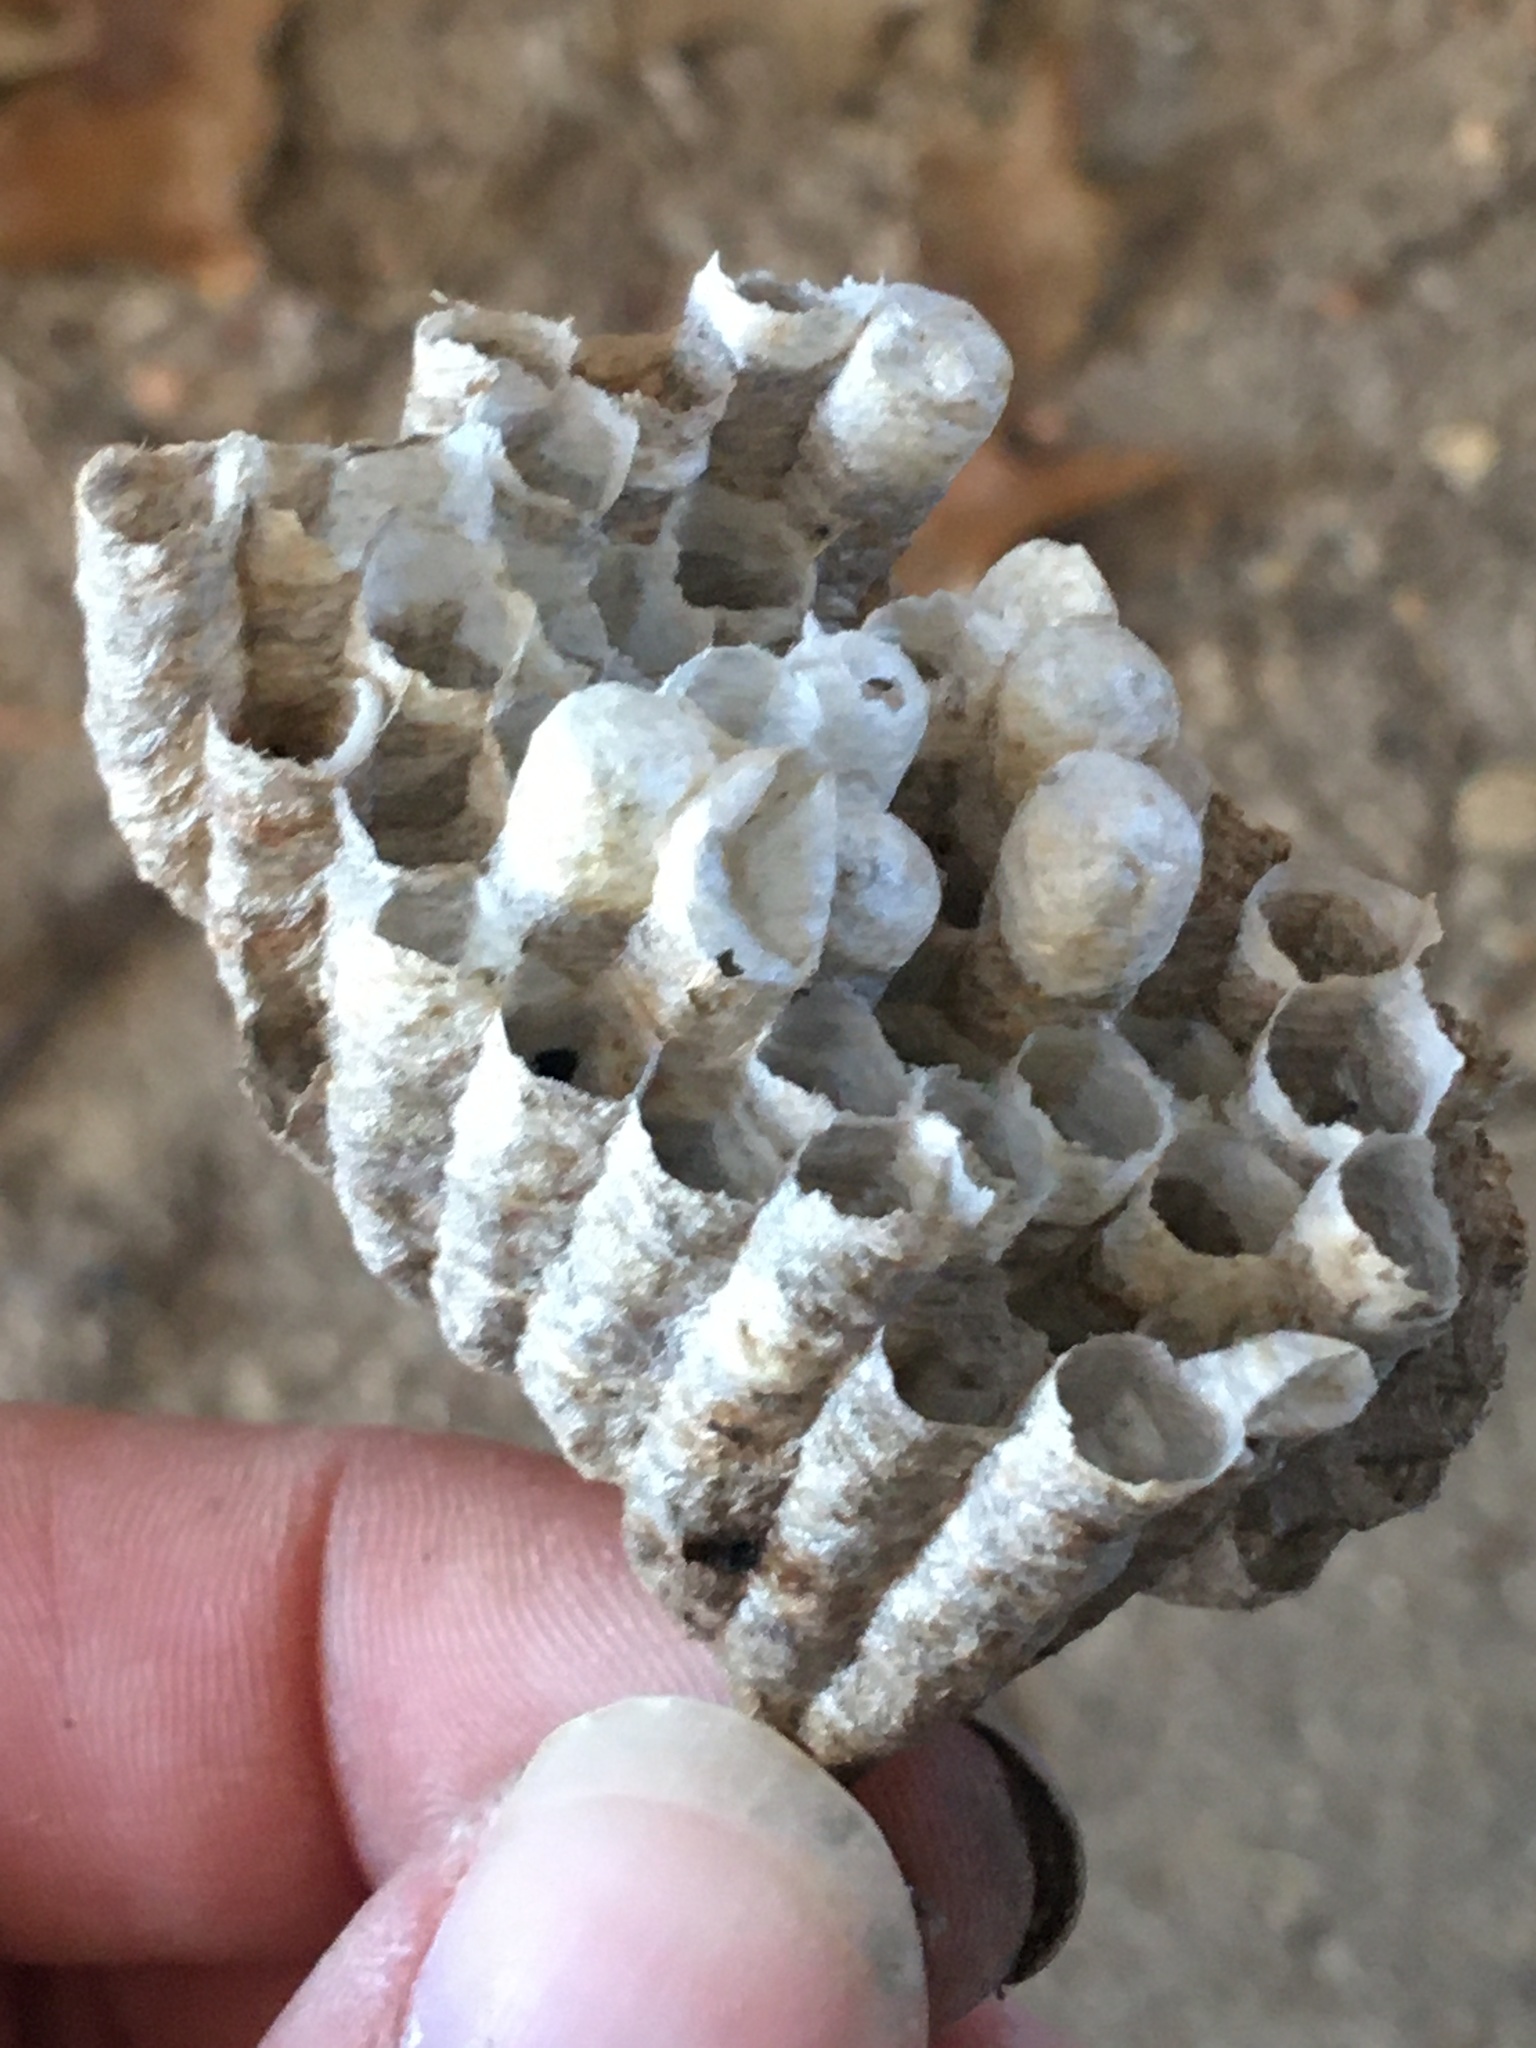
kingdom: Animalia
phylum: Arthropoda
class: Insecta
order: Hymenoptera
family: Eumenidae
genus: Polistes
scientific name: Polistes
